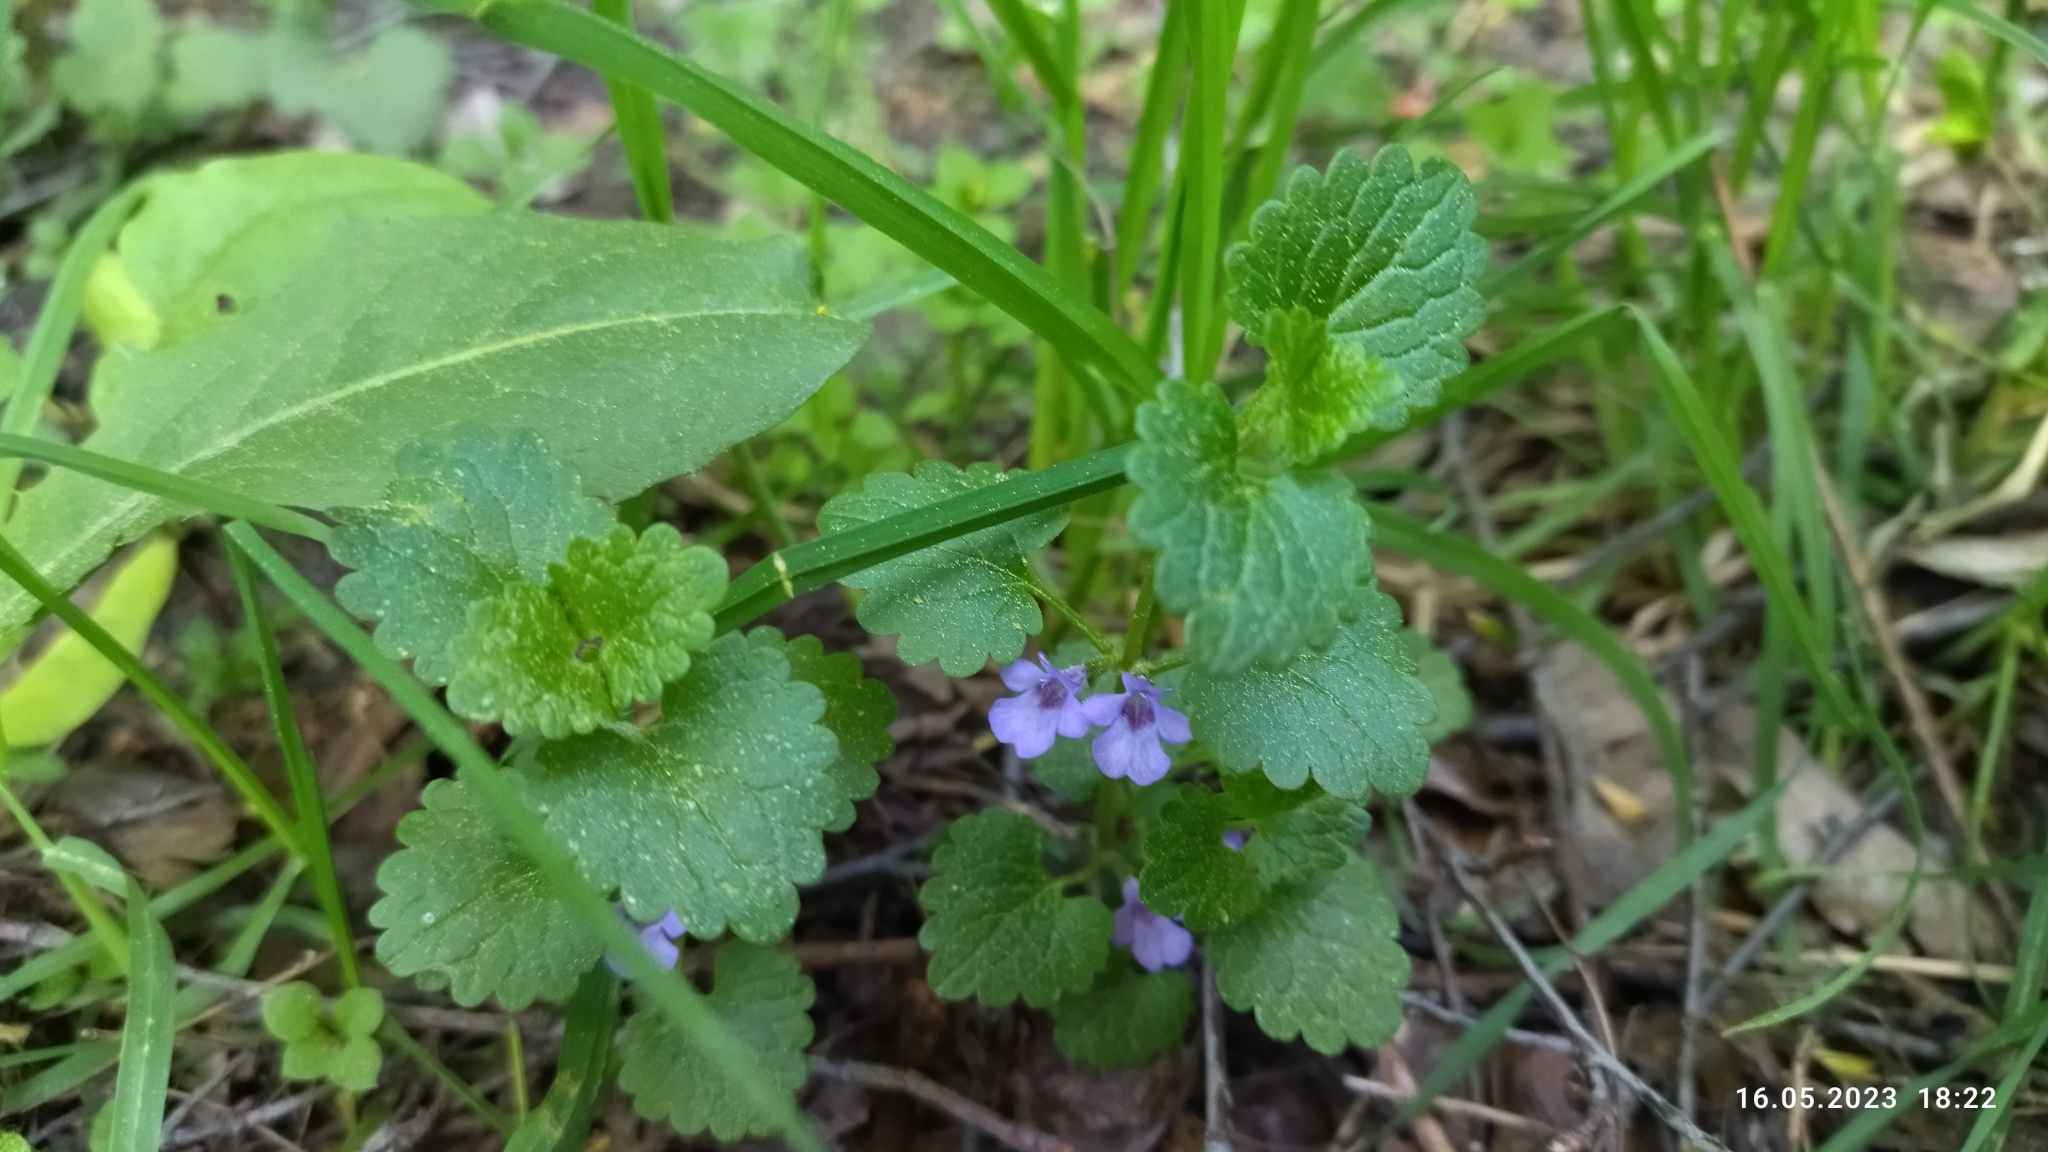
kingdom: Plantae
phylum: Tracheophyta
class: Magnoliopsida
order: Lamiales
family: Lamiaceae
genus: Glechoma
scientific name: Glechoma hederacea
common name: Ground ivy
